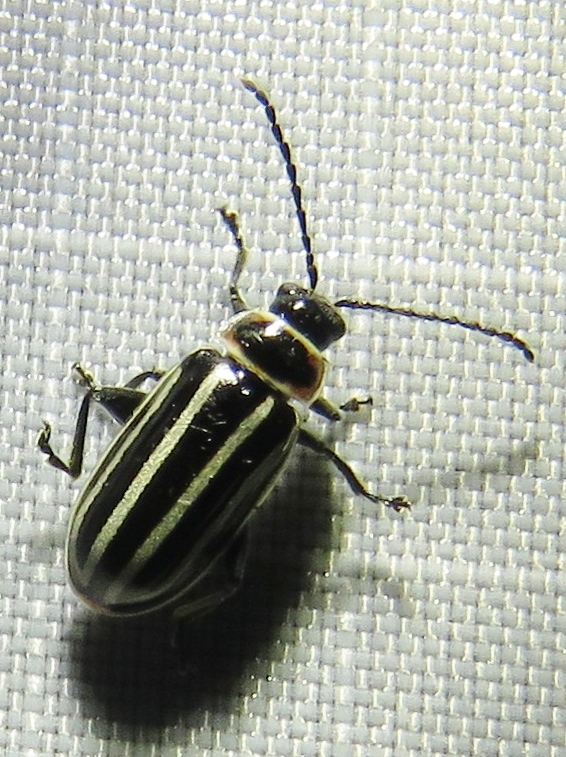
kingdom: Animalia
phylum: Arthropoda
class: Insecta
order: Coleoptera
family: Chrysomelidae
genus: Disonycha
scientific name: Disonycha pensylvanica
